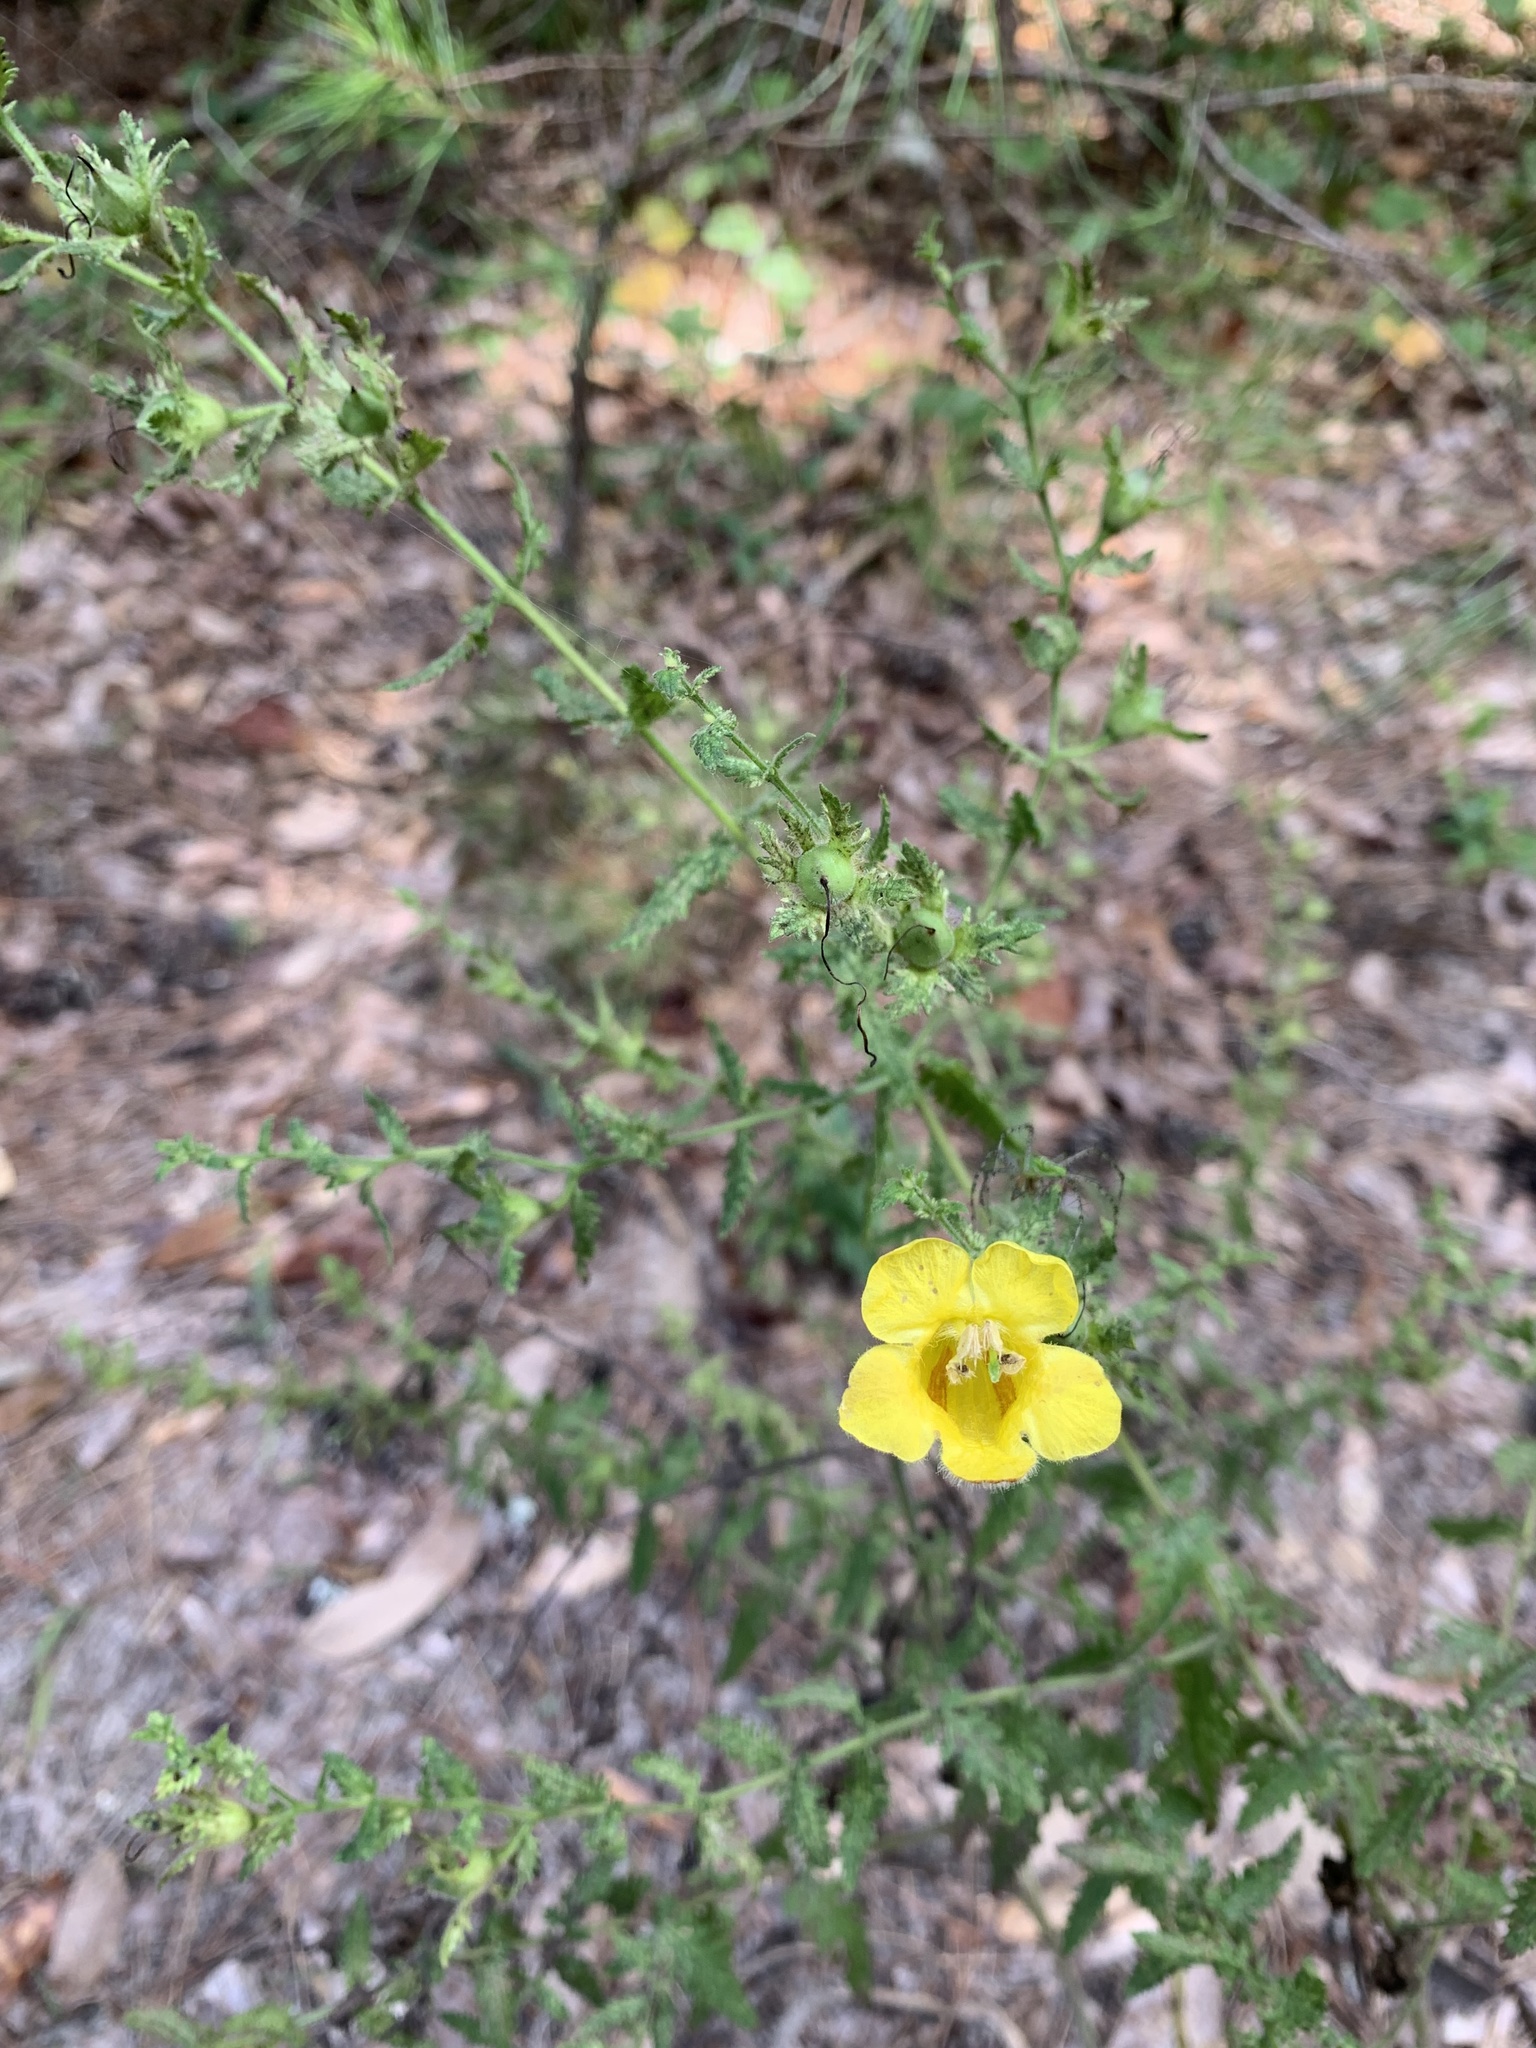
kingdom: Plantae
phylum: Tracheophyta
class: Magnoliopsida
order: Lamiales
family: Orobanchaceae
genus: Aureolaria
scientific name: Aureolaria pectinata
